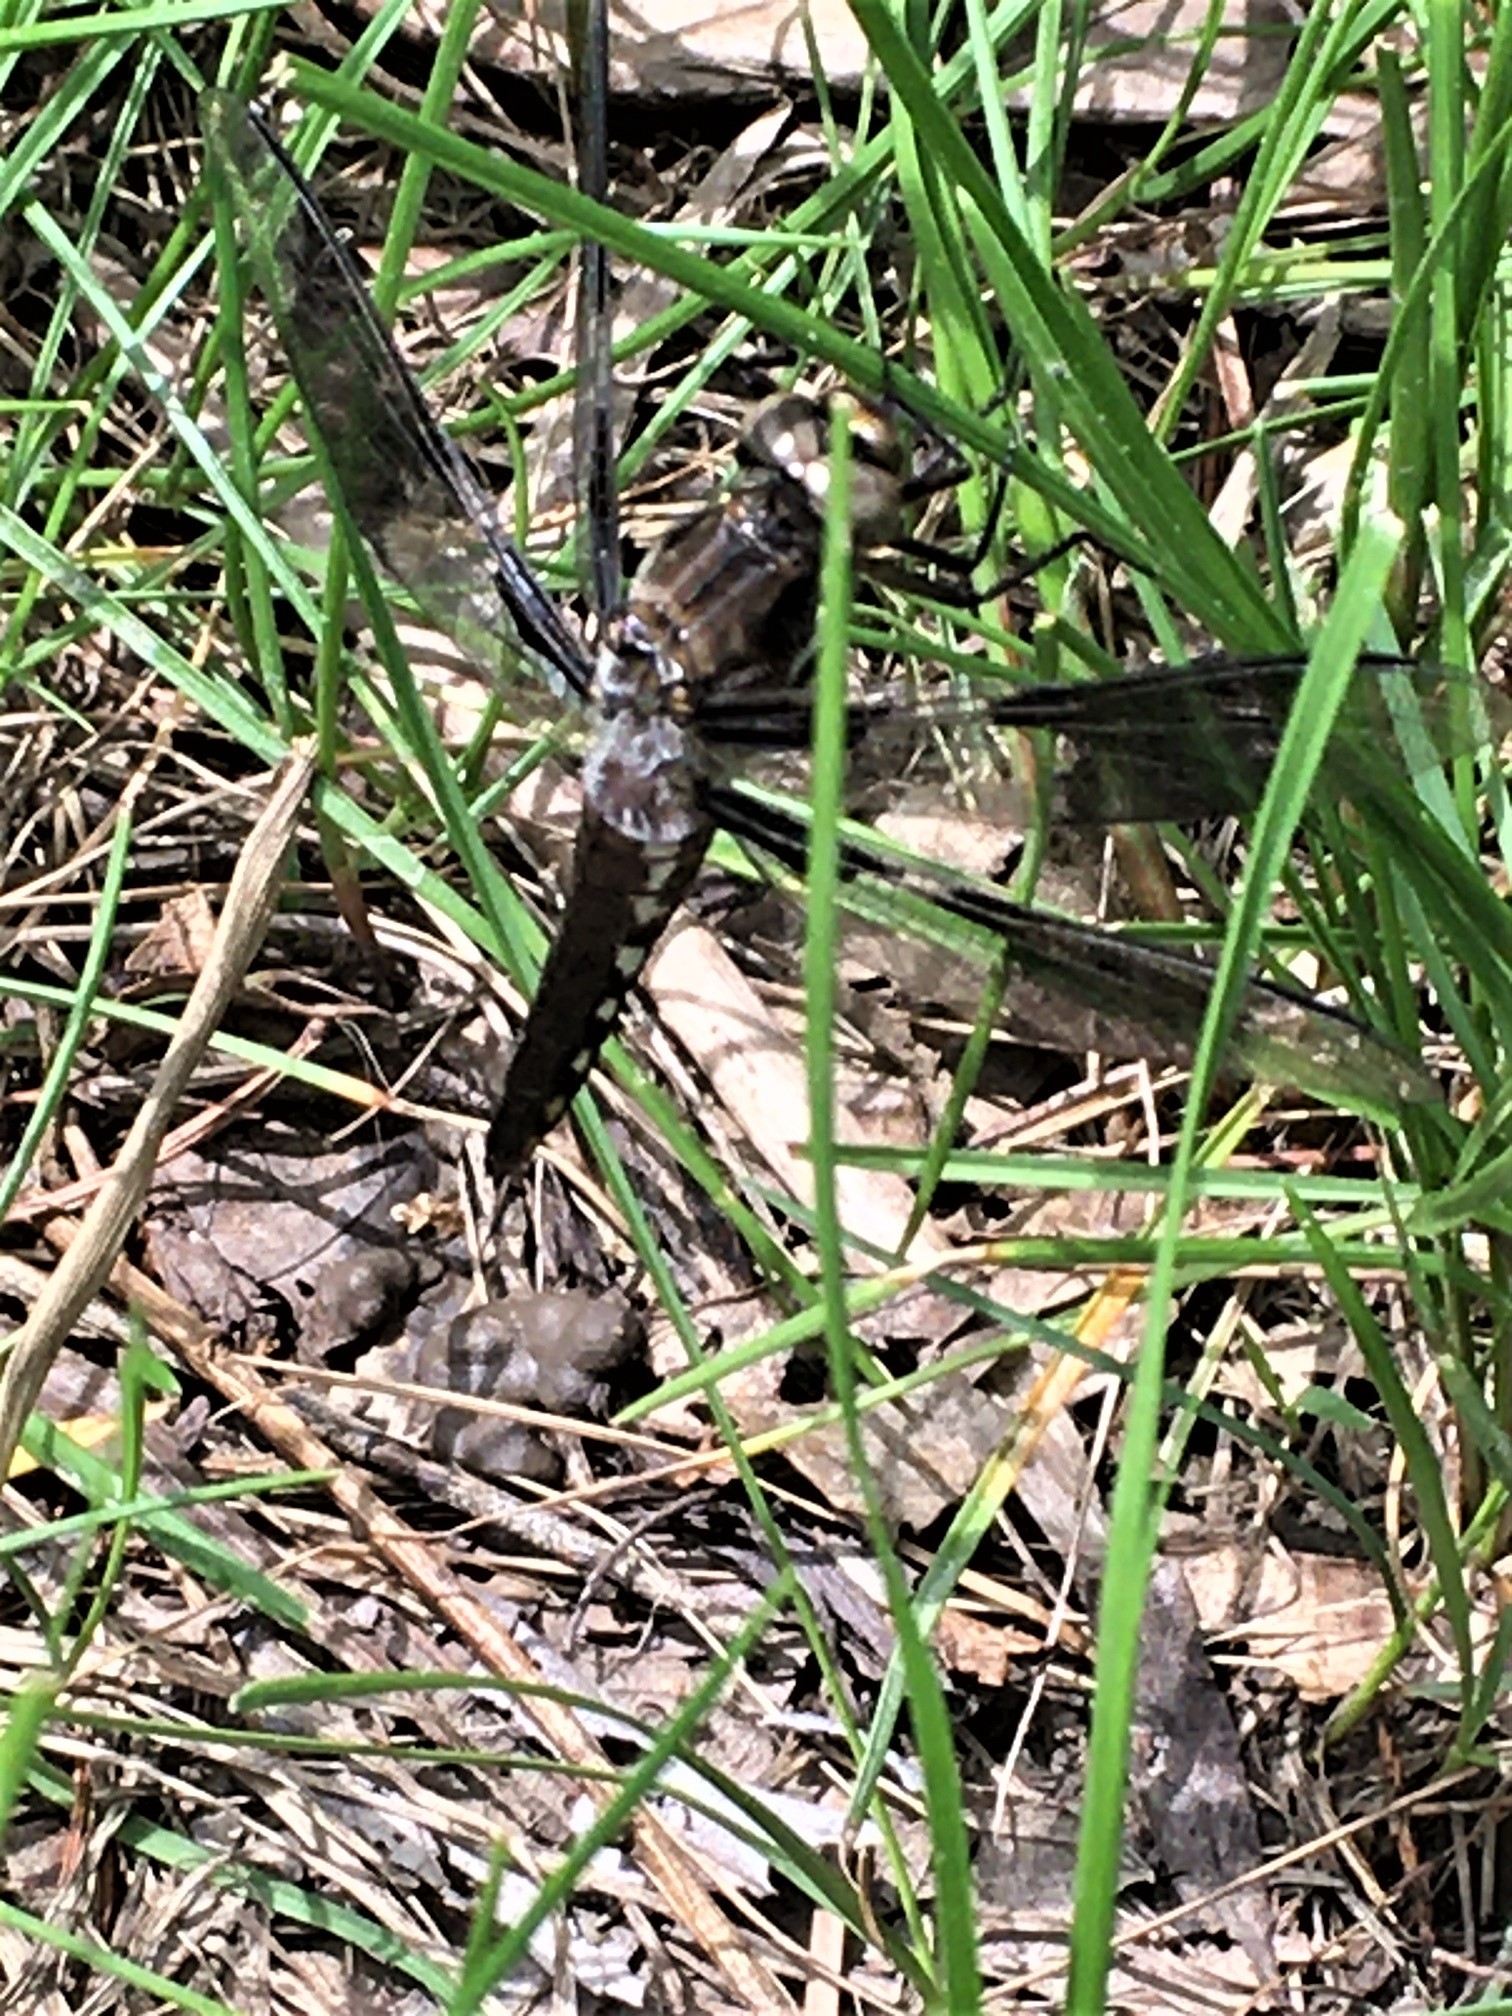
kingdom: Animalia
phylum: Arthropoda
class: Insecta
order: Odonata
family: Libellulidae
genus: Plathemis
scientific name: Plathemis lydia
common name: Common whitetail
